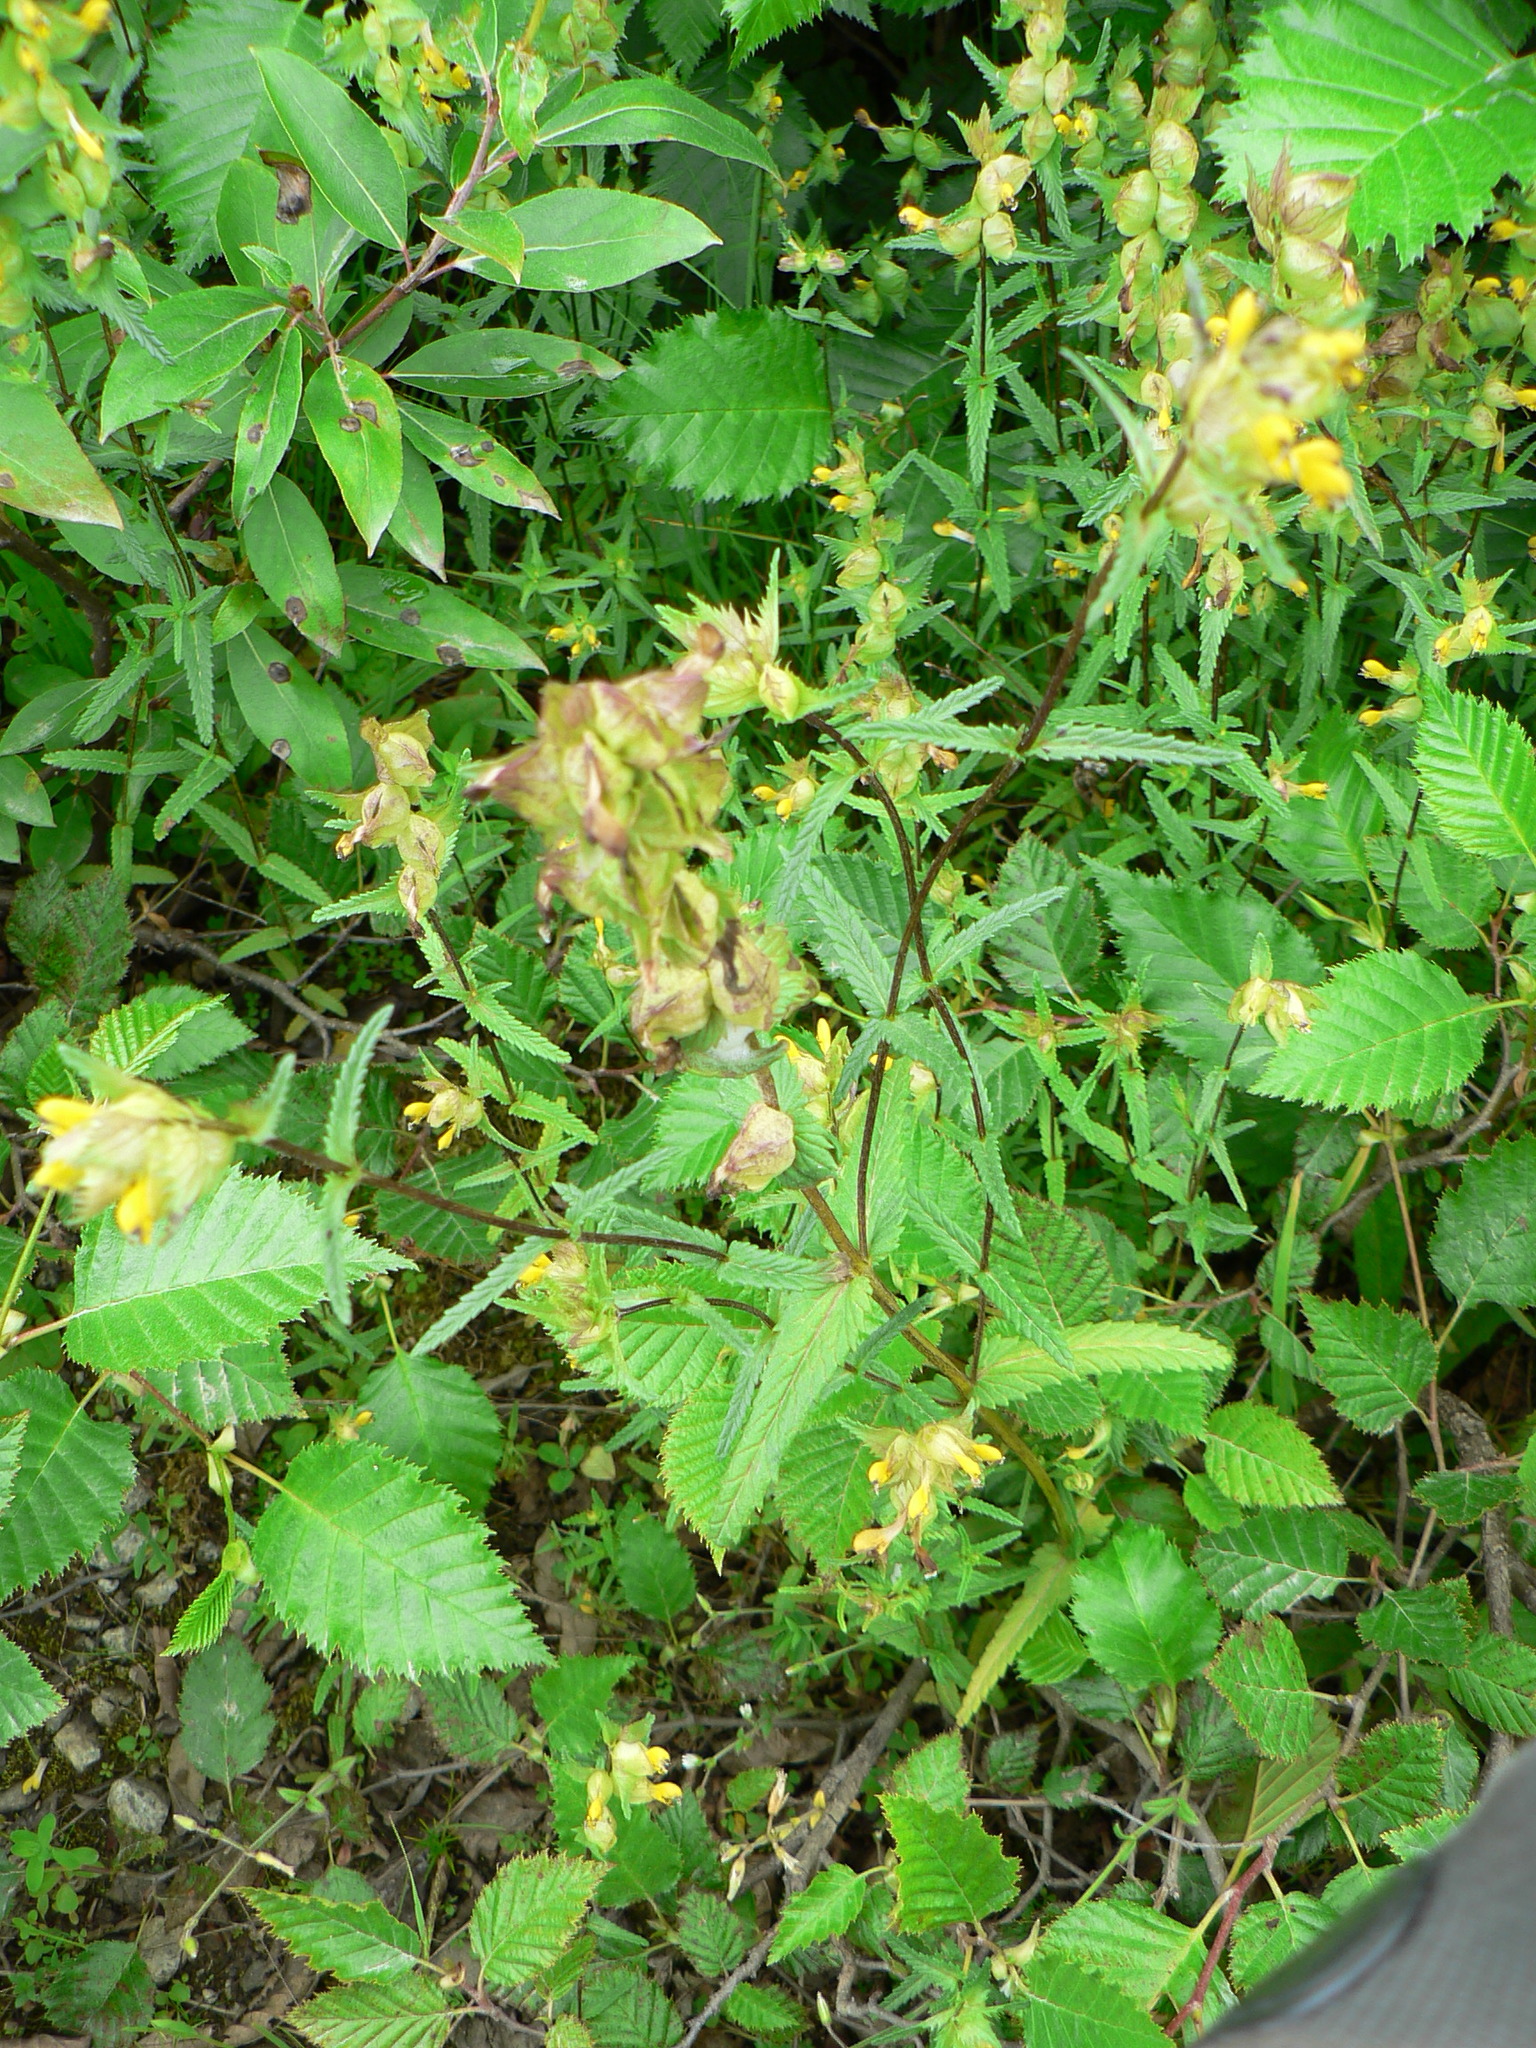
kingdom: Plantae
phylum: Tracheophyta
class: Magnoliopsida
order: Lamiales
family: Orobanchaceae
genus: Rhinanthus
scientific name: Rhinanthus minor
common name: Yellow-rattle
